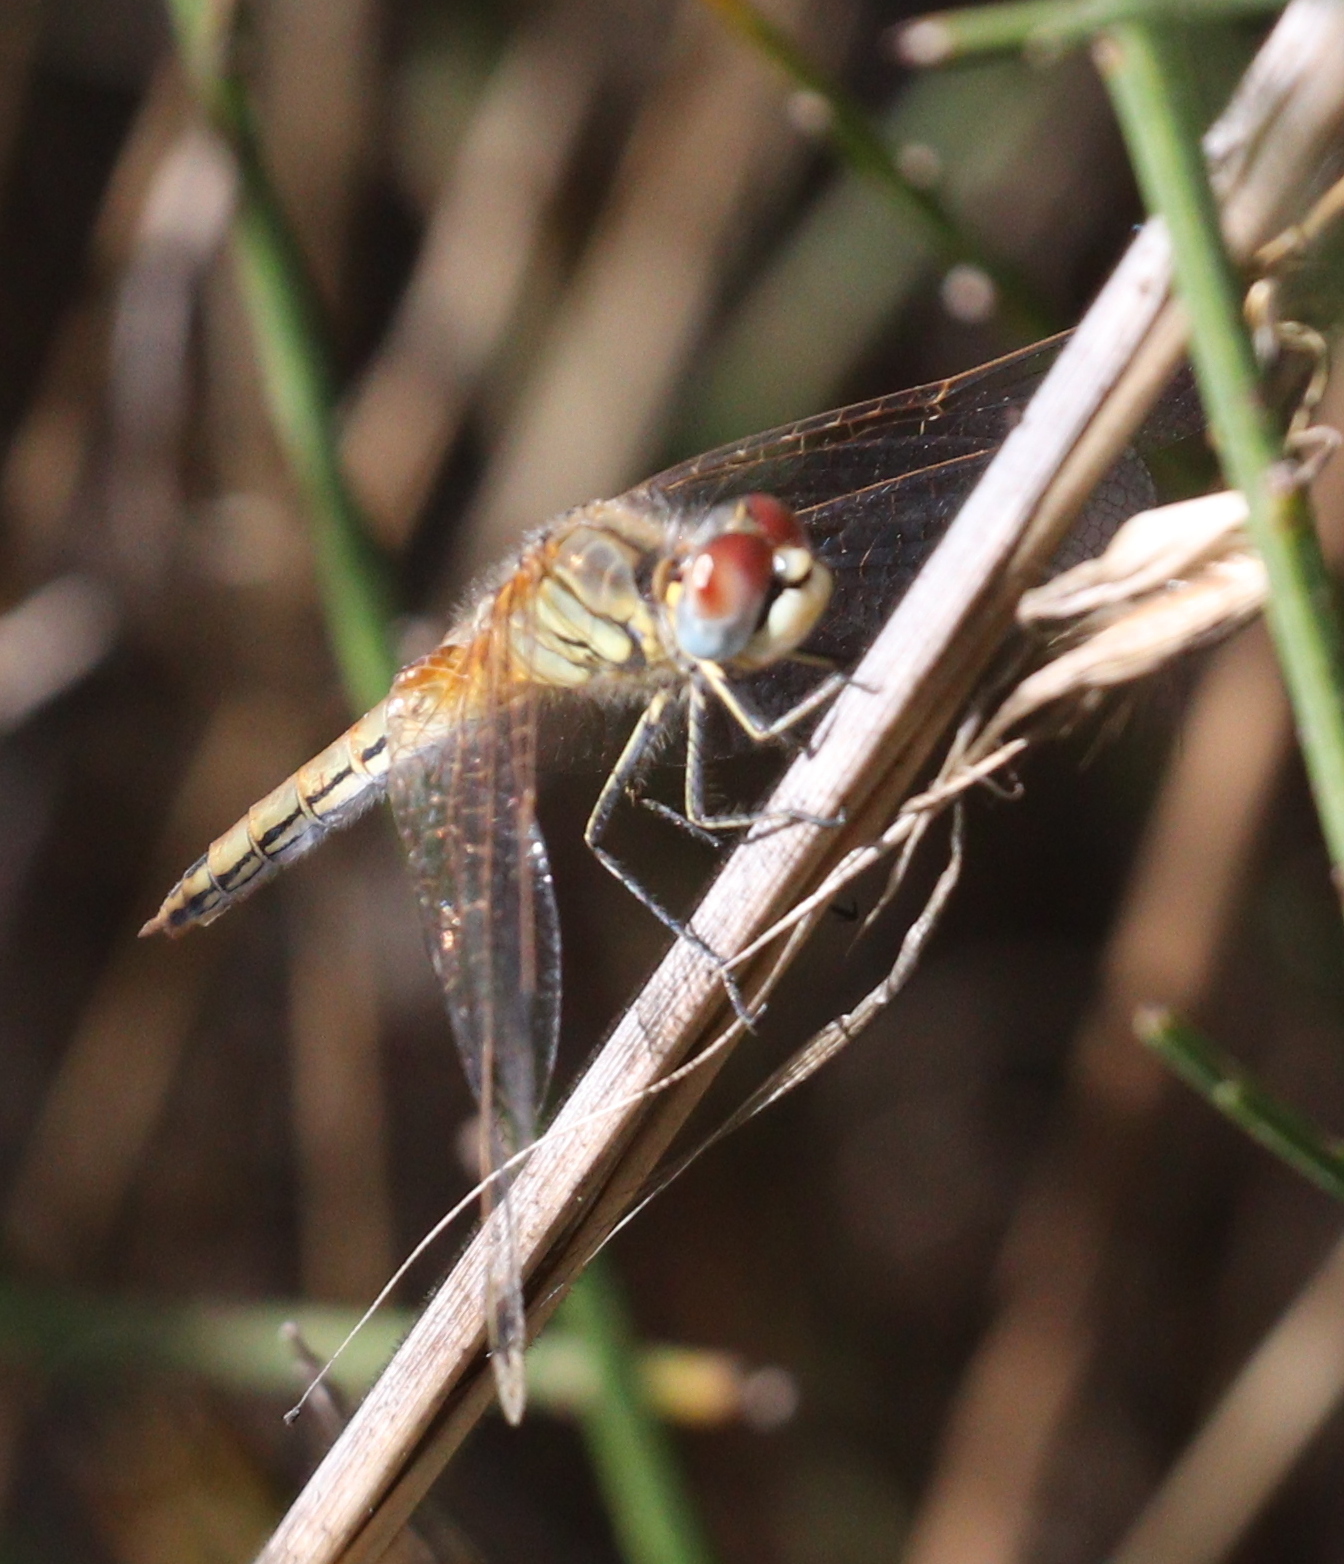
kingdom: Animalia
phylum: Arthropoda
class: Insecta
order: Odonata
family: Libellulidae
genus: Sympetrum
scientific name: Sympetrum fonscolombii
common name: Red-veined darter
